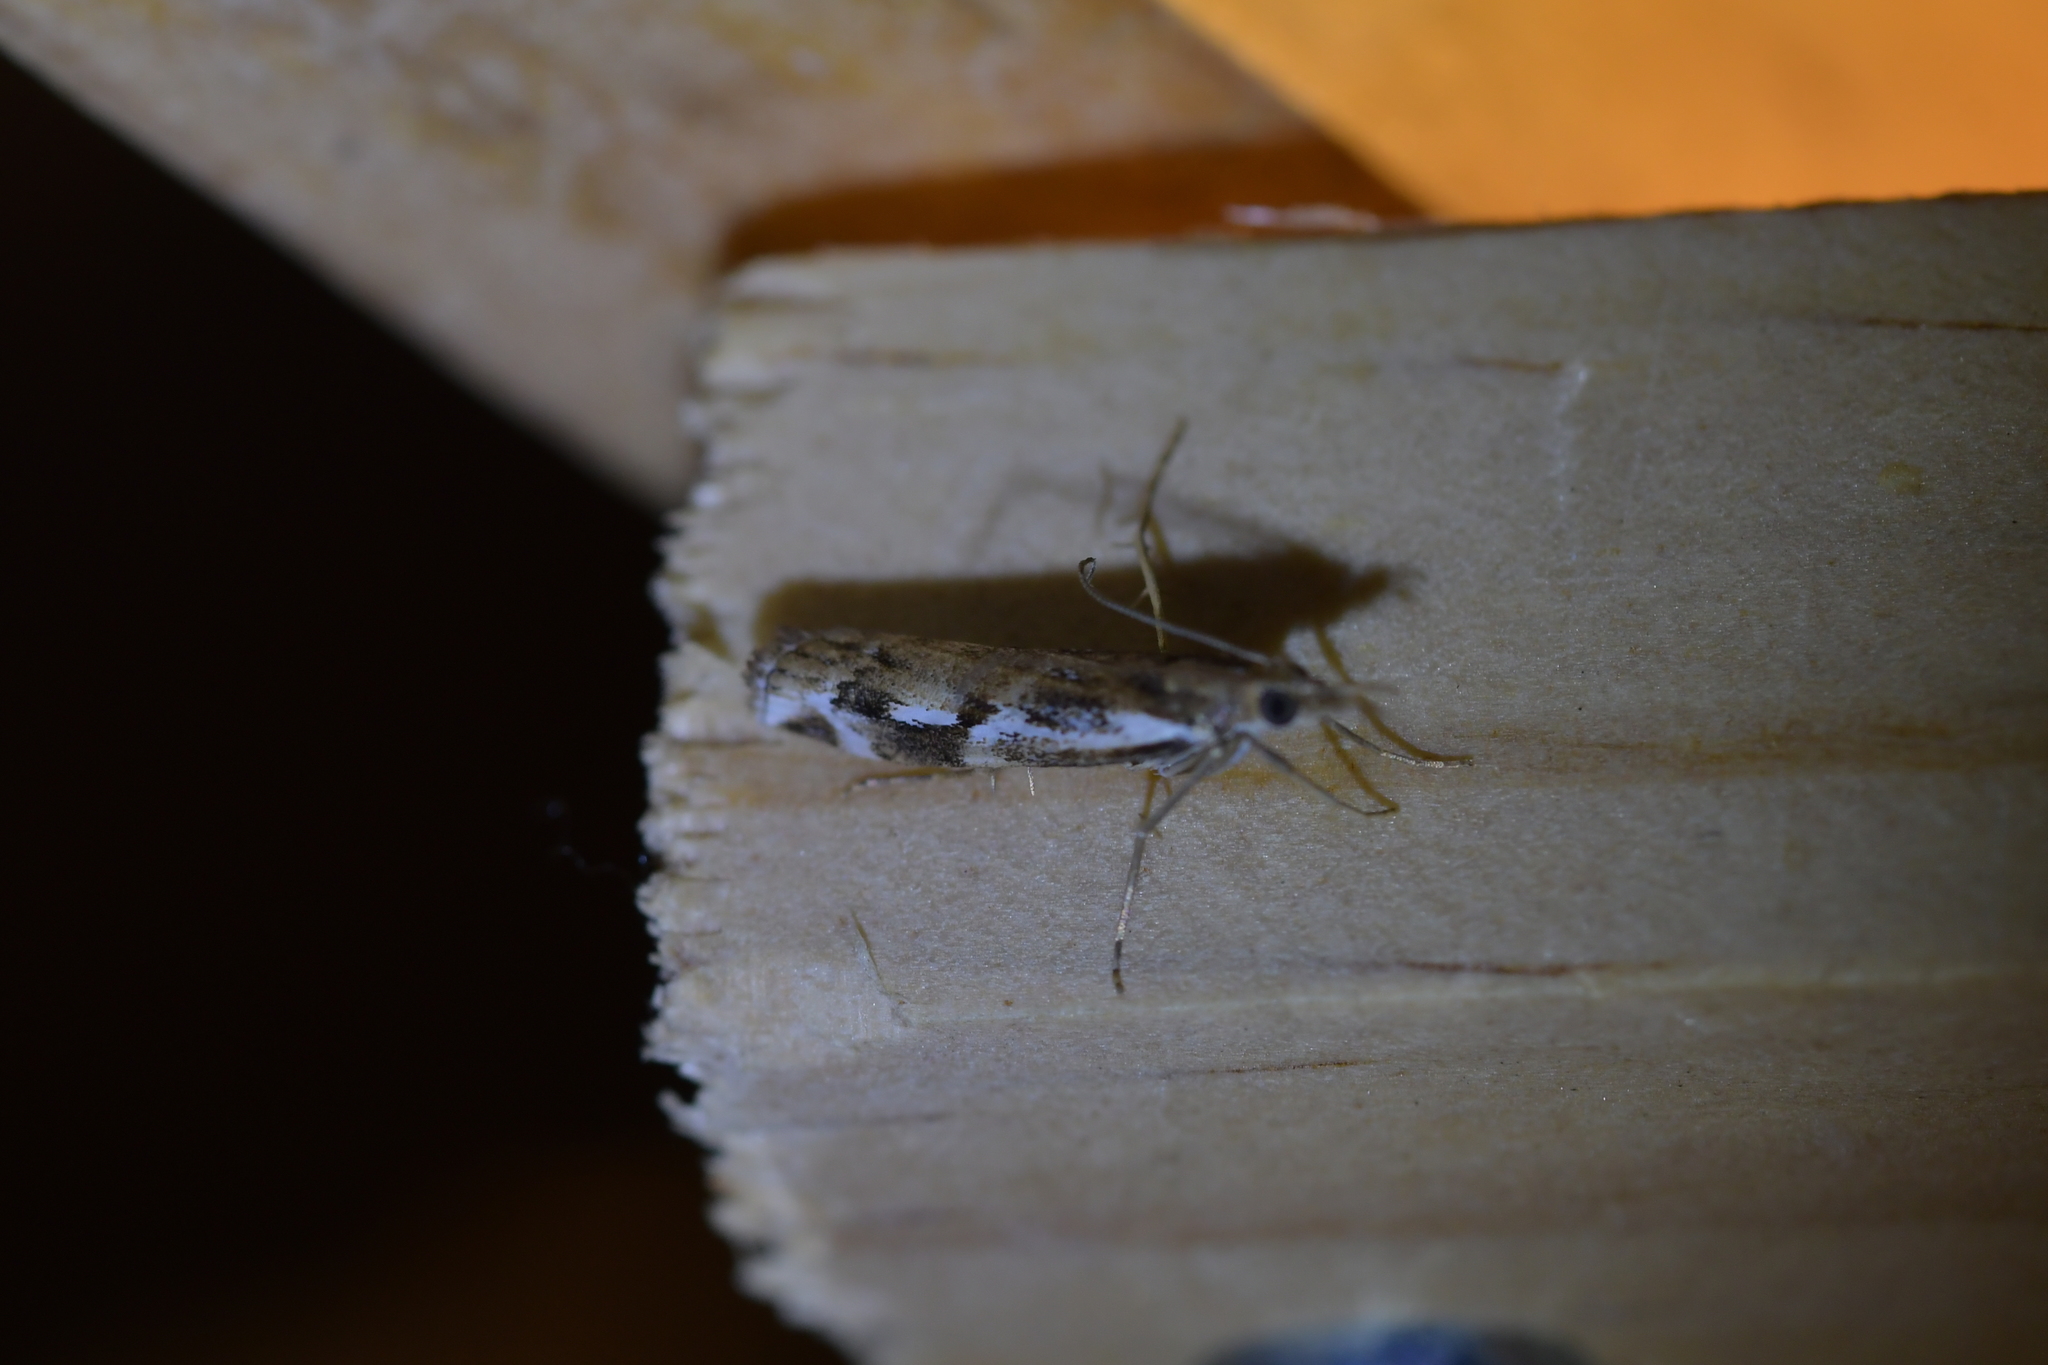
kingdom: Animalia
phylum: Arthropoda
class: Insecta
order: Lepidoptera
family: Crambidae
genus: Orocrambus
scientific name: Orocrambus vulgaris
